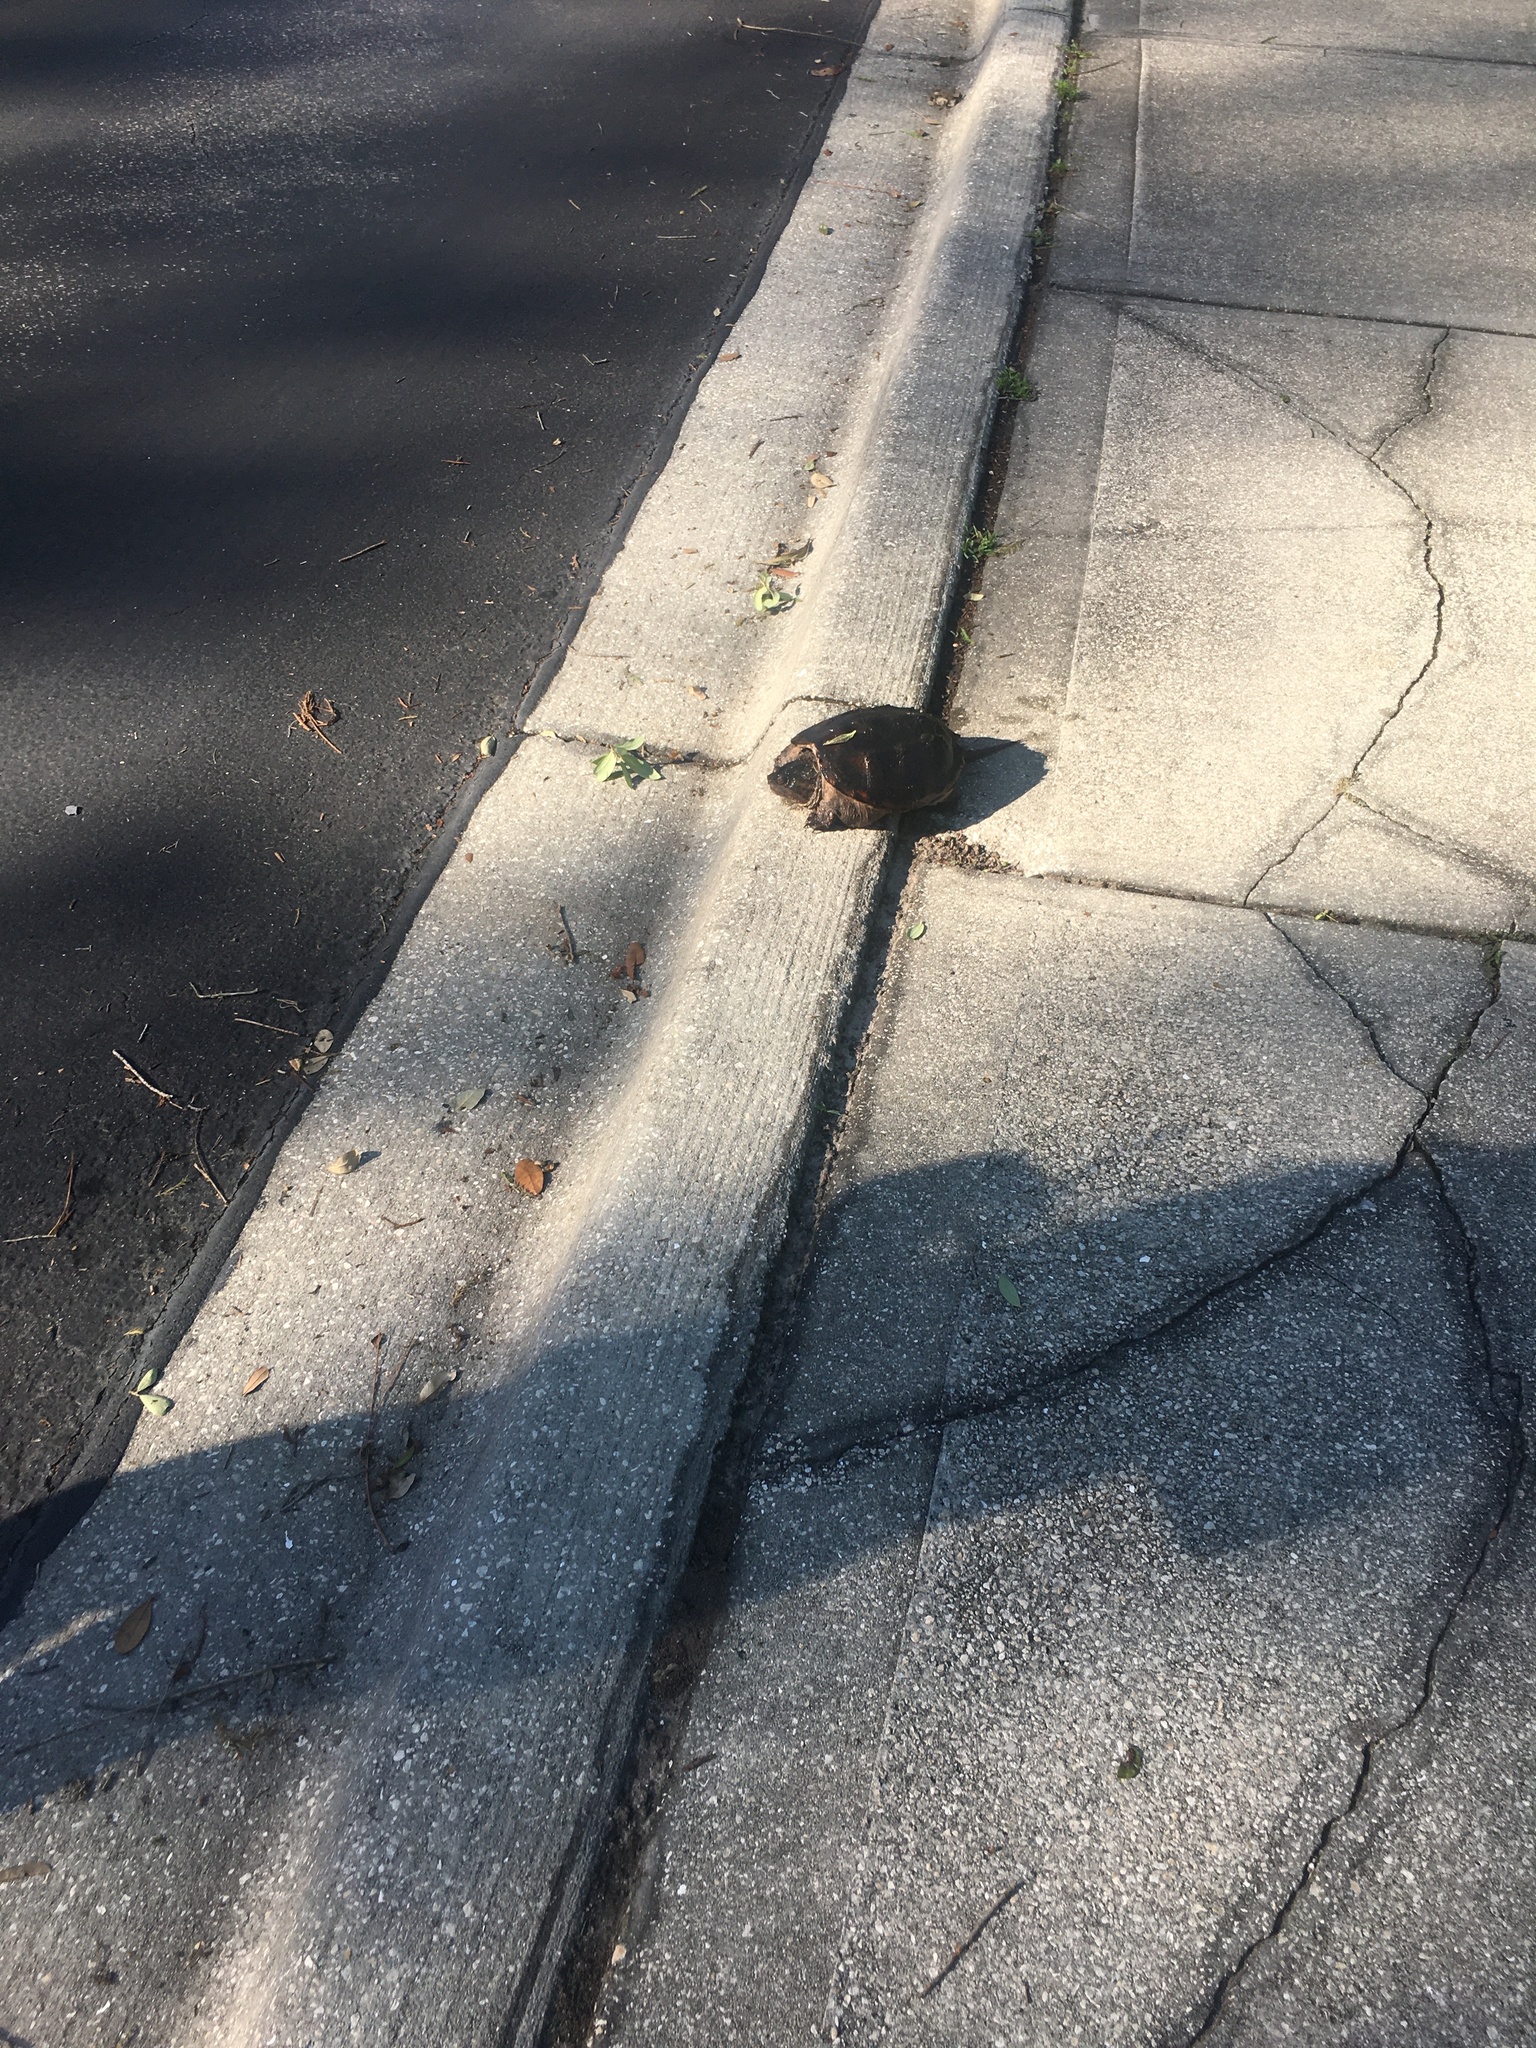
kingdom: Animalia
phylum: Chordata
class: Testudines
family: Chelydridae
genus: Chelydra
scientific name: Chelydra serpentina
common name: Common snapping turtle
